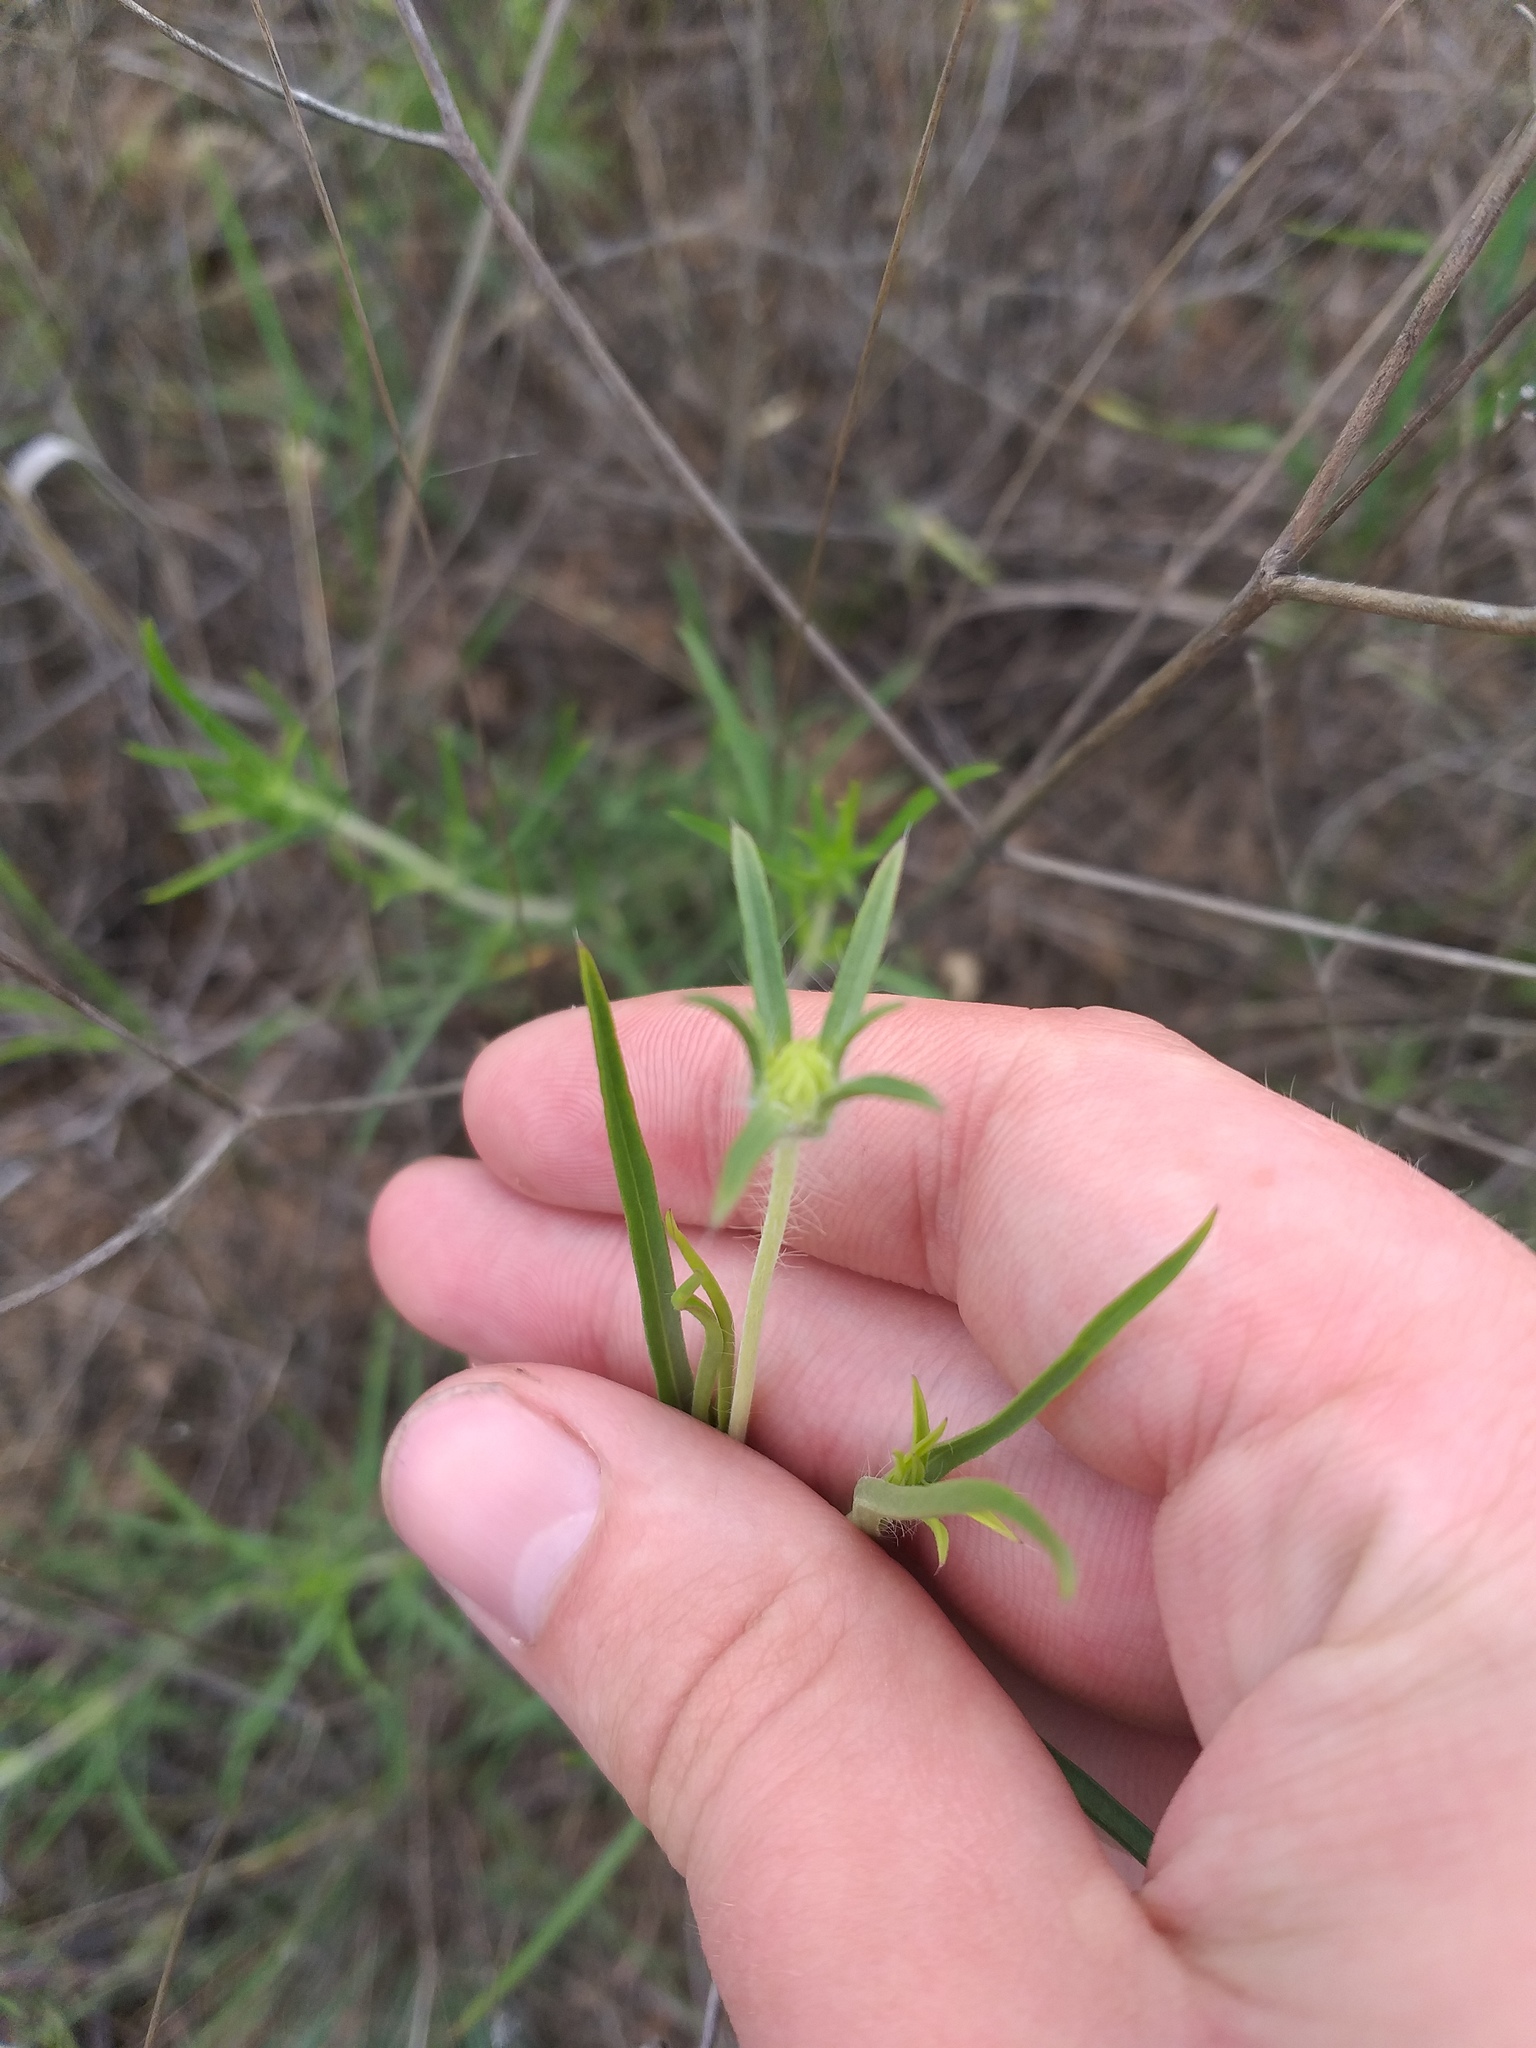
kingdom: Plantae
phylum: Tracheophyta
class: Magnoliopsida
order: Dipsacales
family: Caprifoliaceae
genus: Lomelosia
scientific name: Lomelosia argentea
